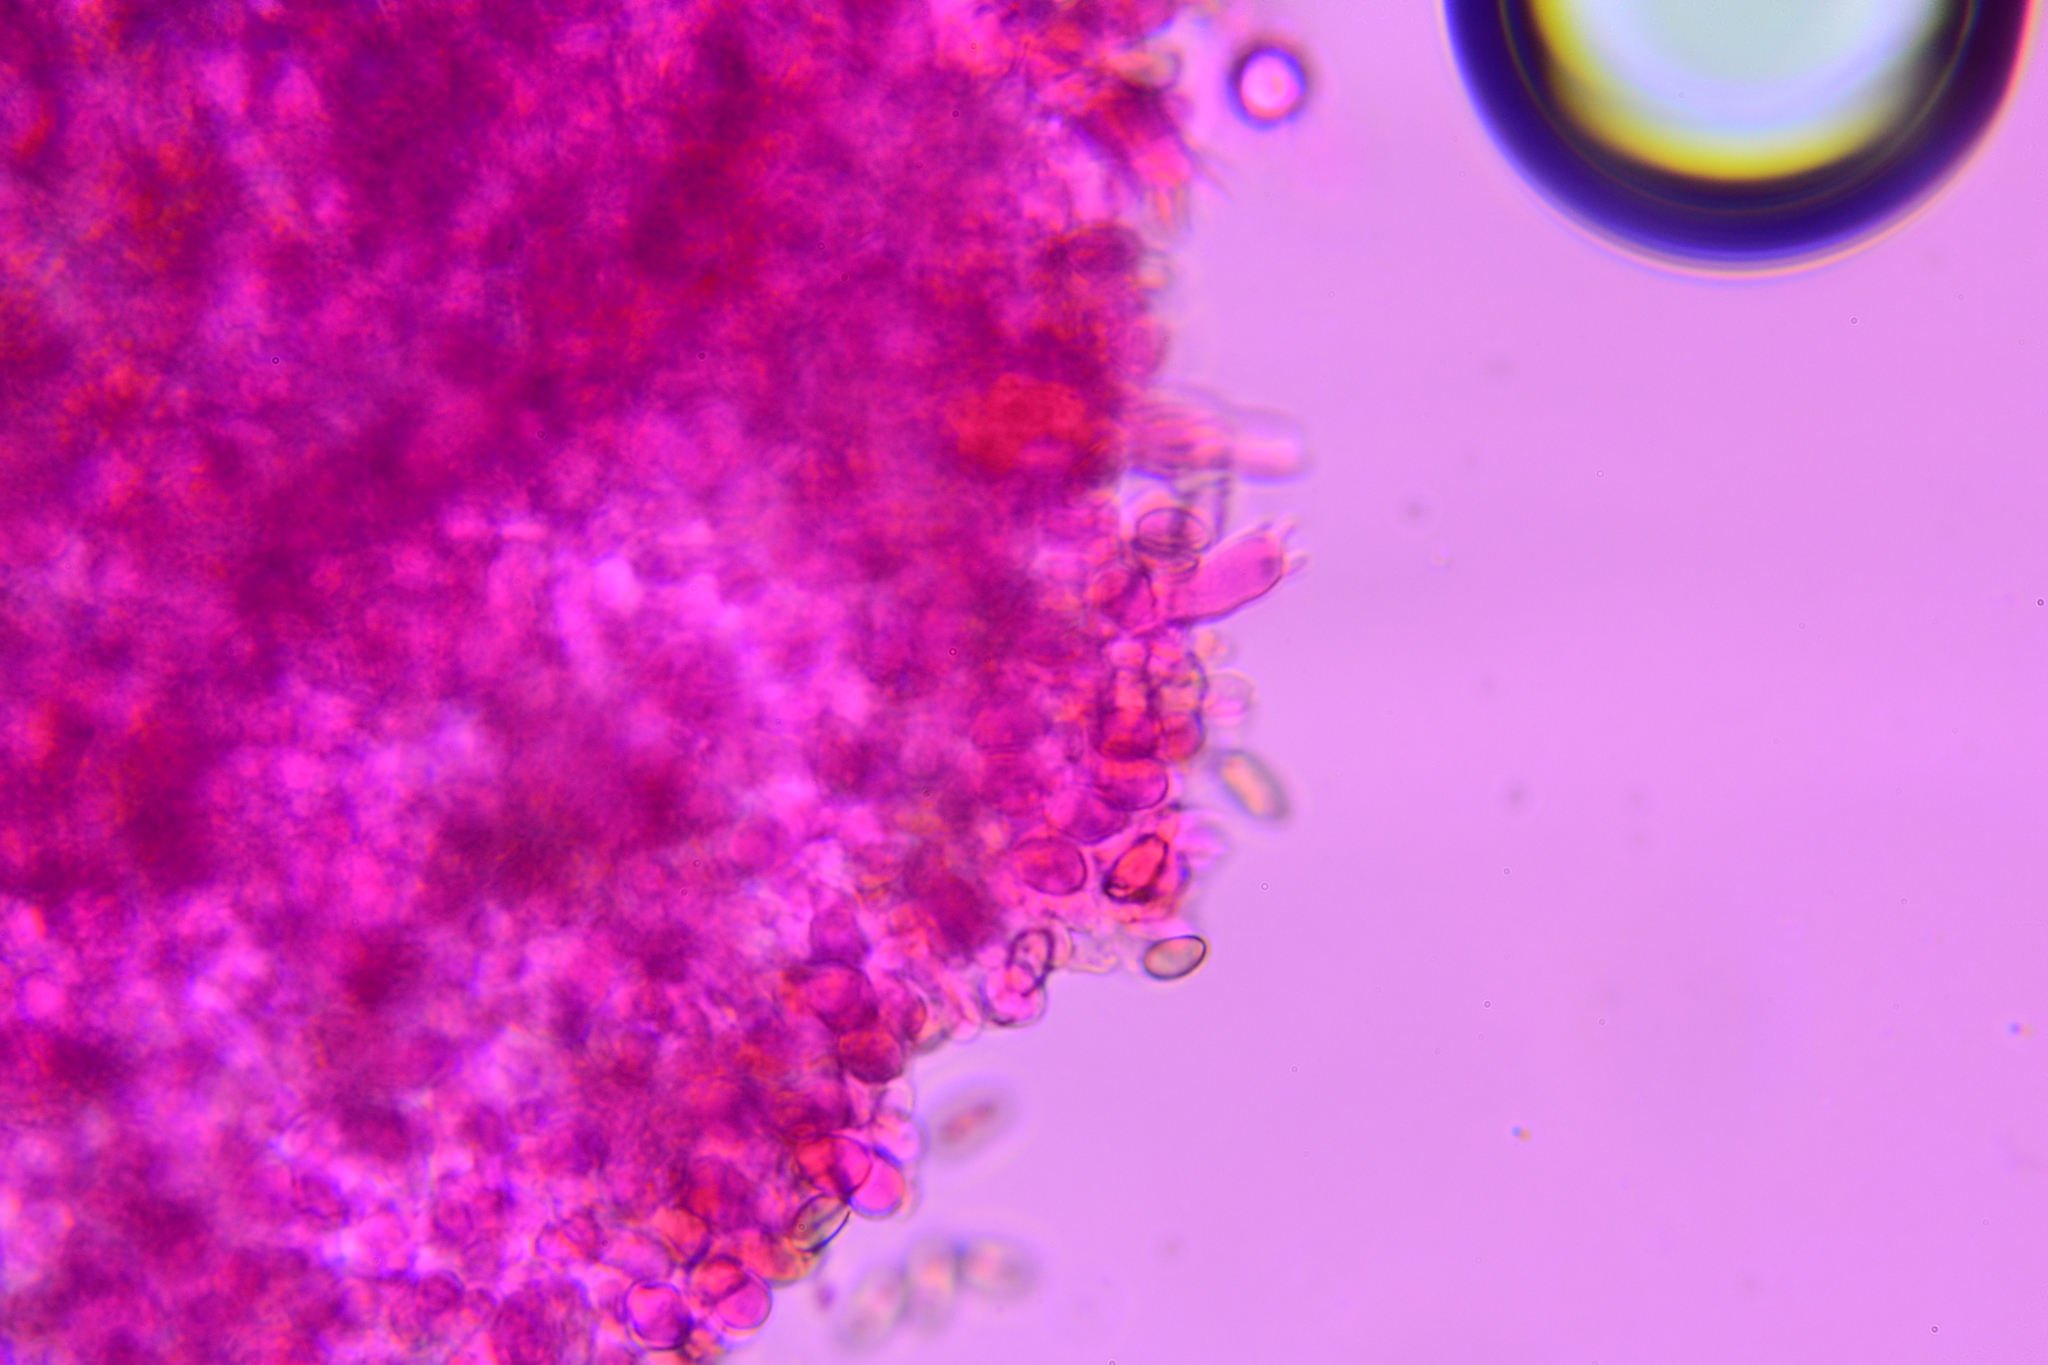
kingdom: Fungi
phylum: Basidiomycota
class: Agaricomycetes
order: Agaricales
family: Strophariaceae
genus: Agrocybe
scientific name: Agrocybe arvalis
